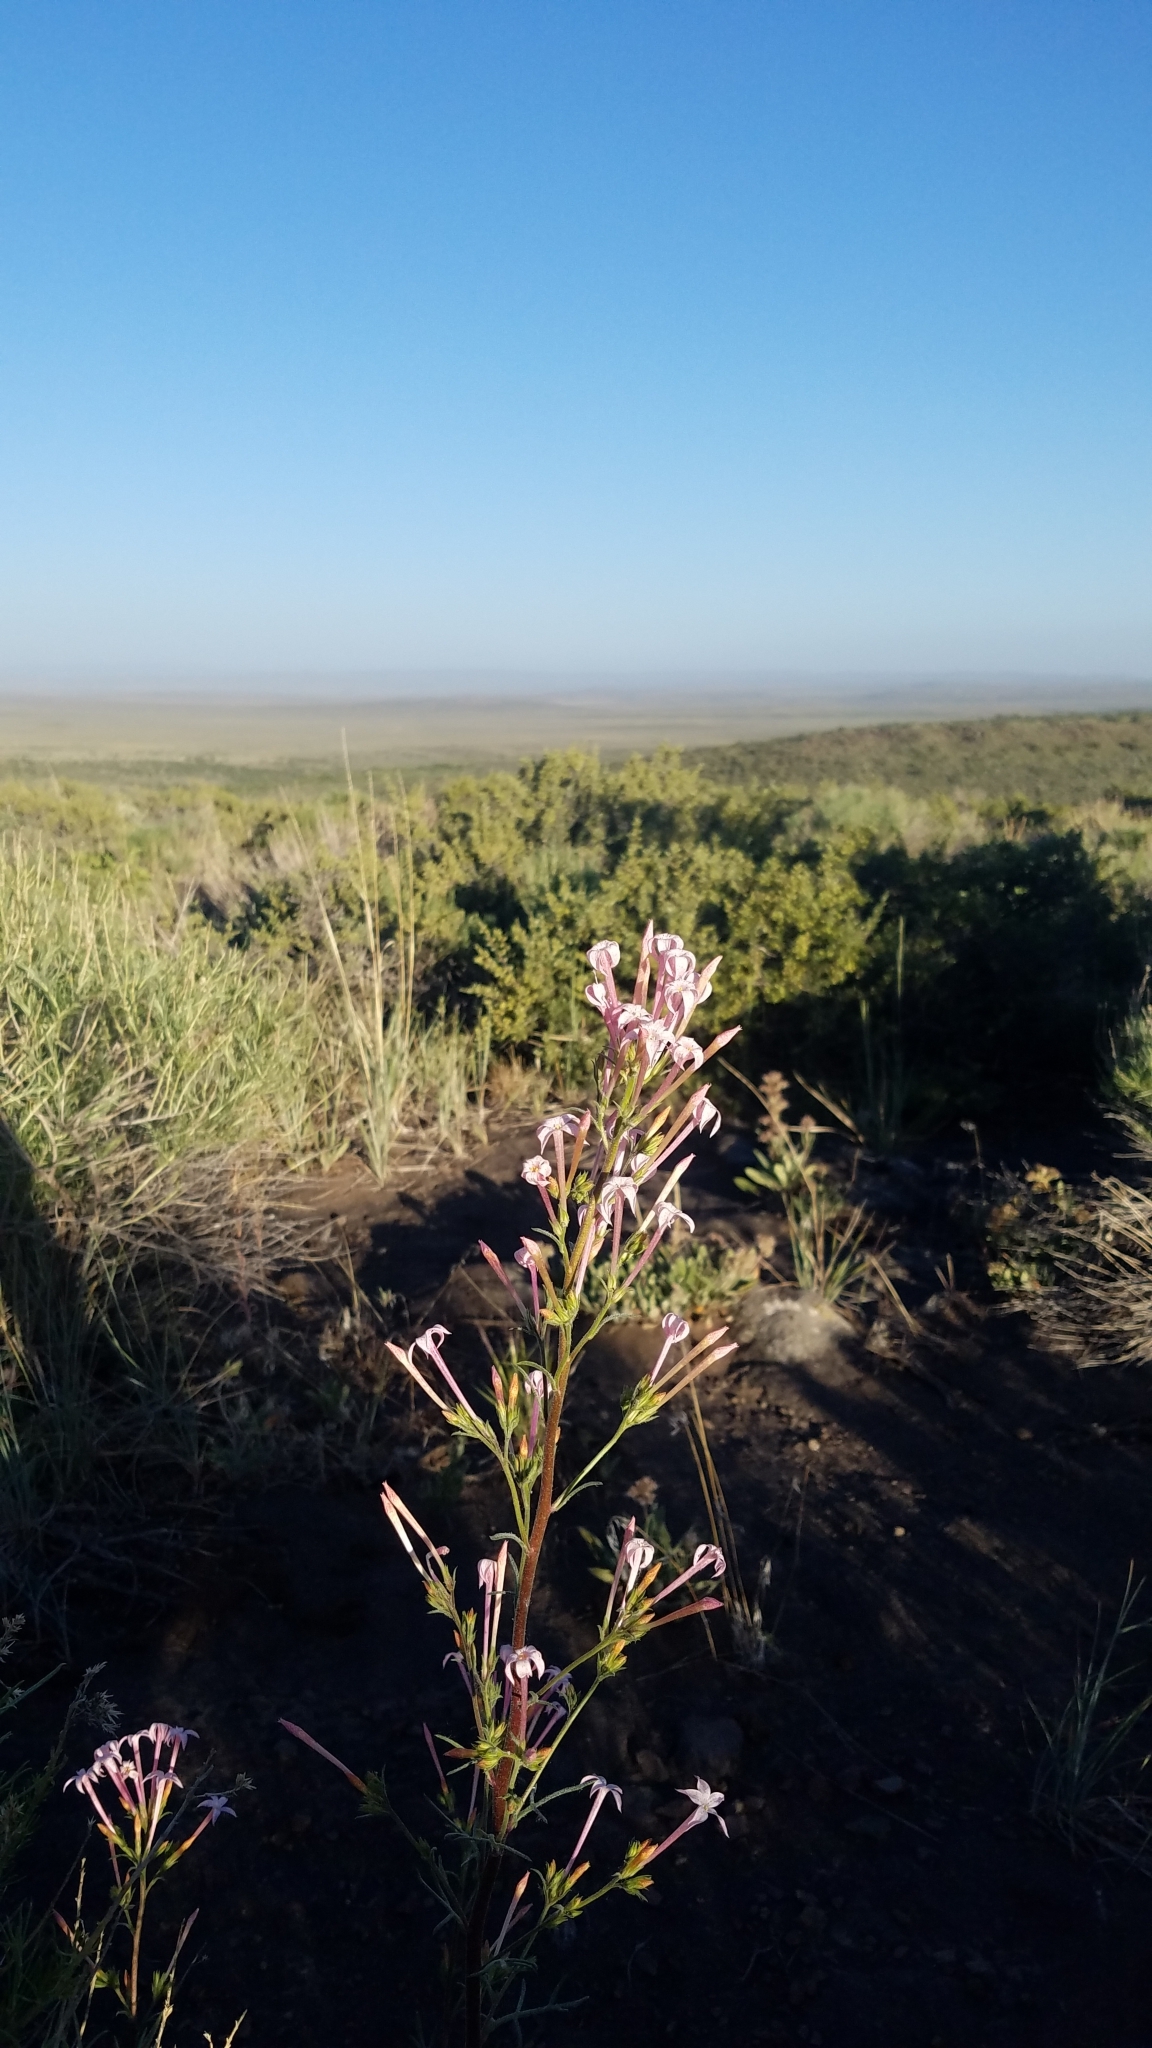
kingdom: Plantae
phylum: Tracheophyta
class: Magnoliopsida
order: Ericales
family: Polemoniaceae
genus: Ipomopsis
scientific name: Ipomopsis tenuituba
